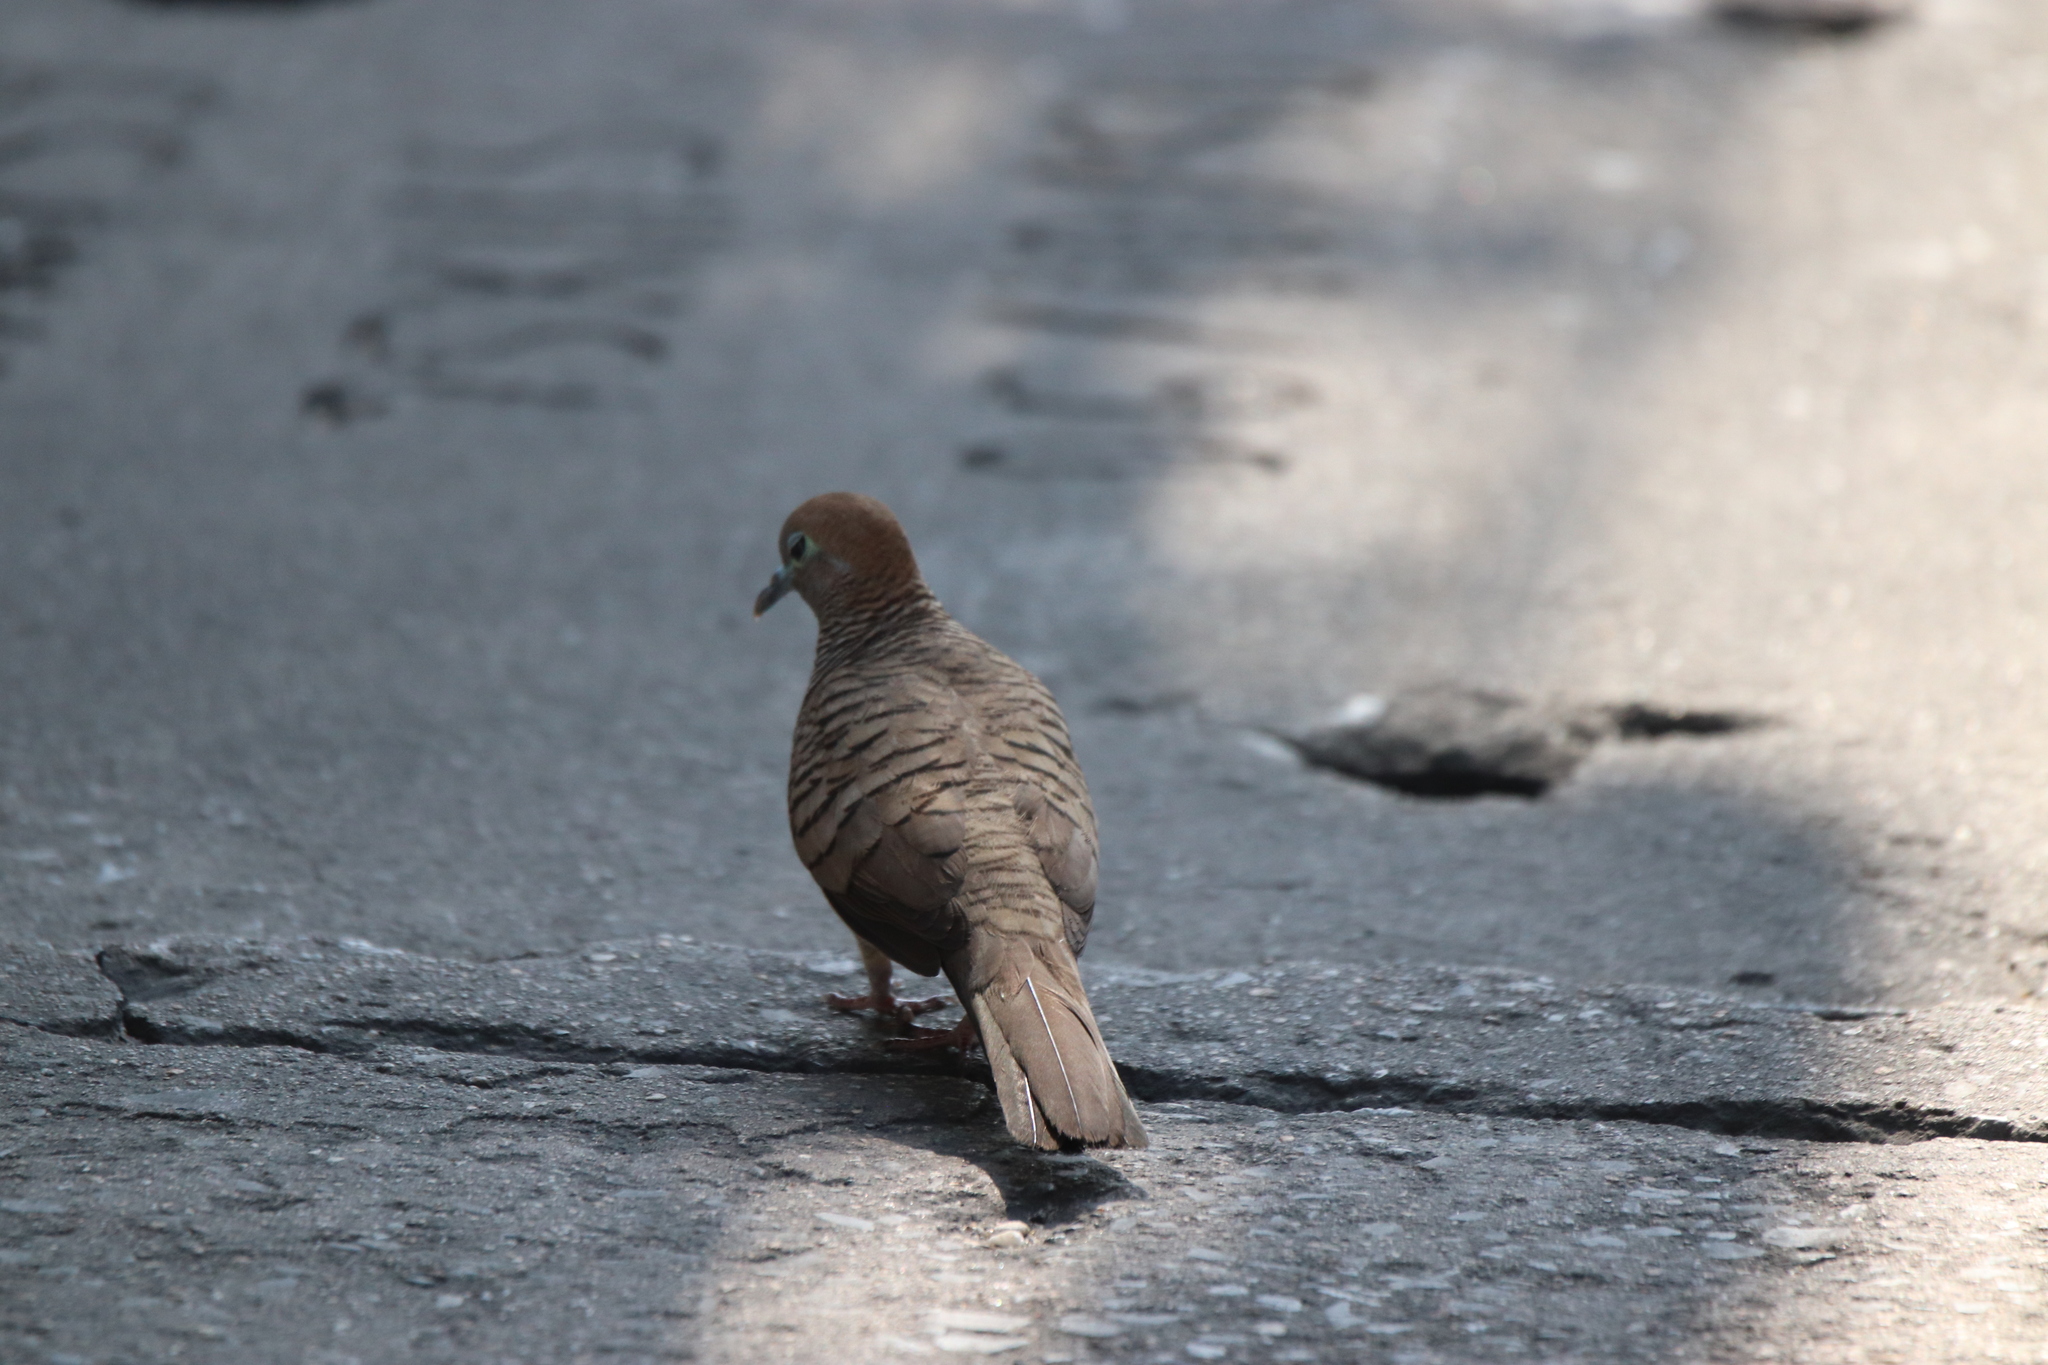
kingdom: Animalia
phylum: Chordata
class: Aves
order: Columbiformes
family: Columbidae
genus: Geopelia
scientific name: Geopelia striata
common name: Zebra dove
